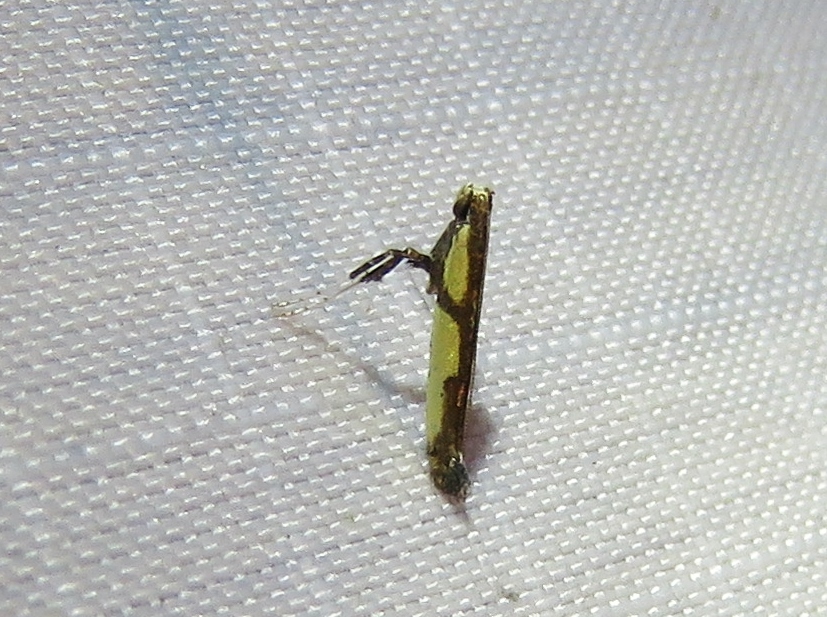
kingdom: Animalia
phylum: Arthropoda
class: Insecta
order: Lepidoptera
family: Gracillariidae
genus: Caloptilia
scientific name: Caloptilia blandella
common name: Walnut caloptilia moth
